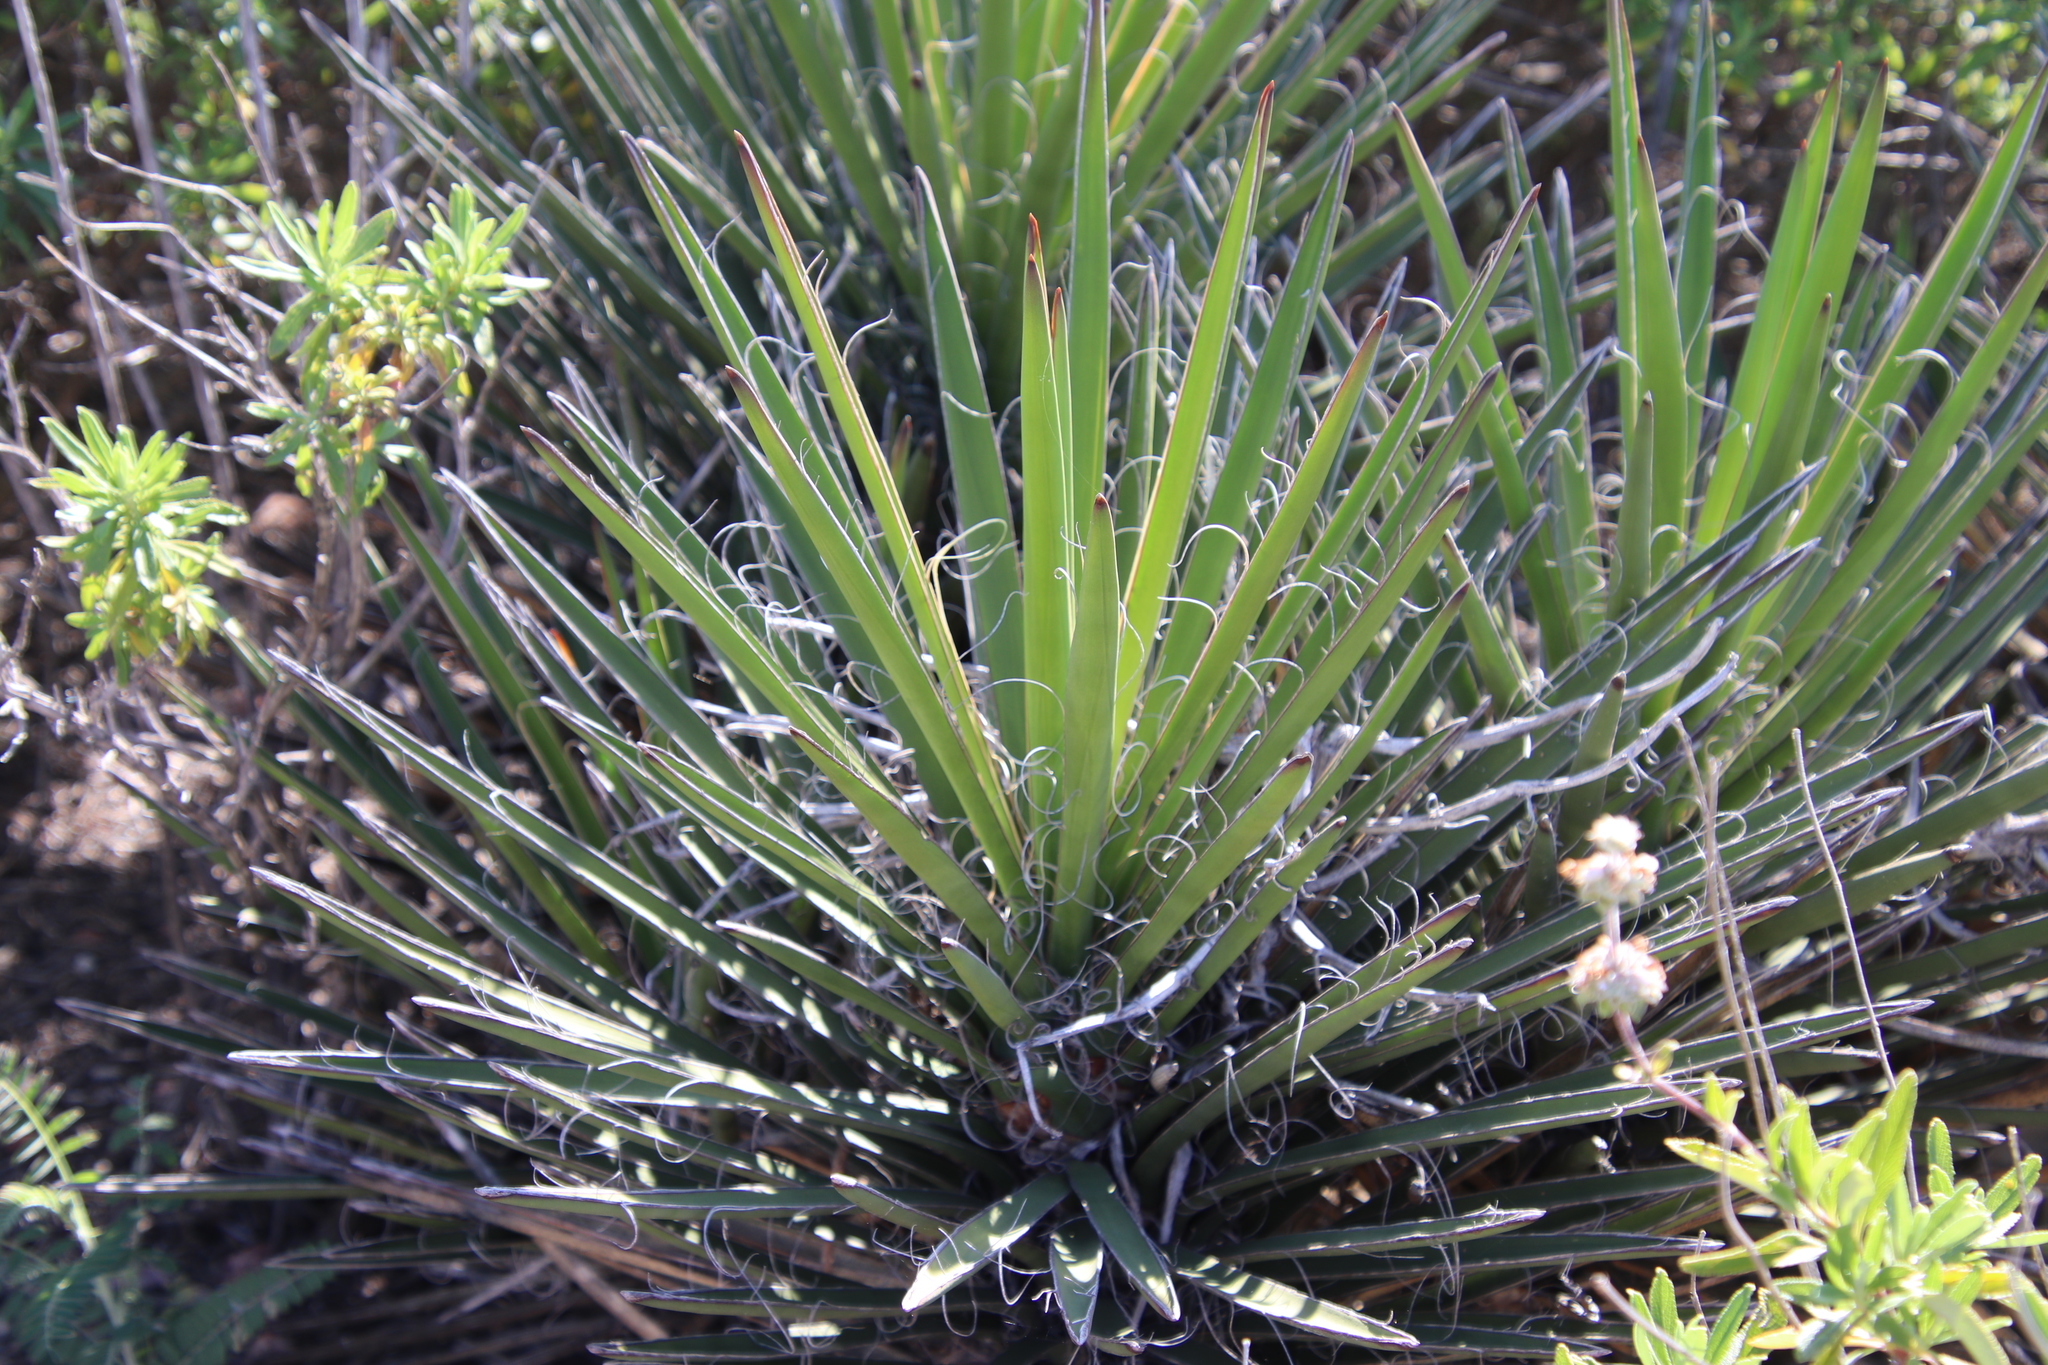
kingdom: Plantae
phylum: Tracheophyta
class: Liliopsida
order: Asparagales
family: Asparagaceae
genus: Yucca
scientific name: Yucca schidigera
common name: Mojave yucca
